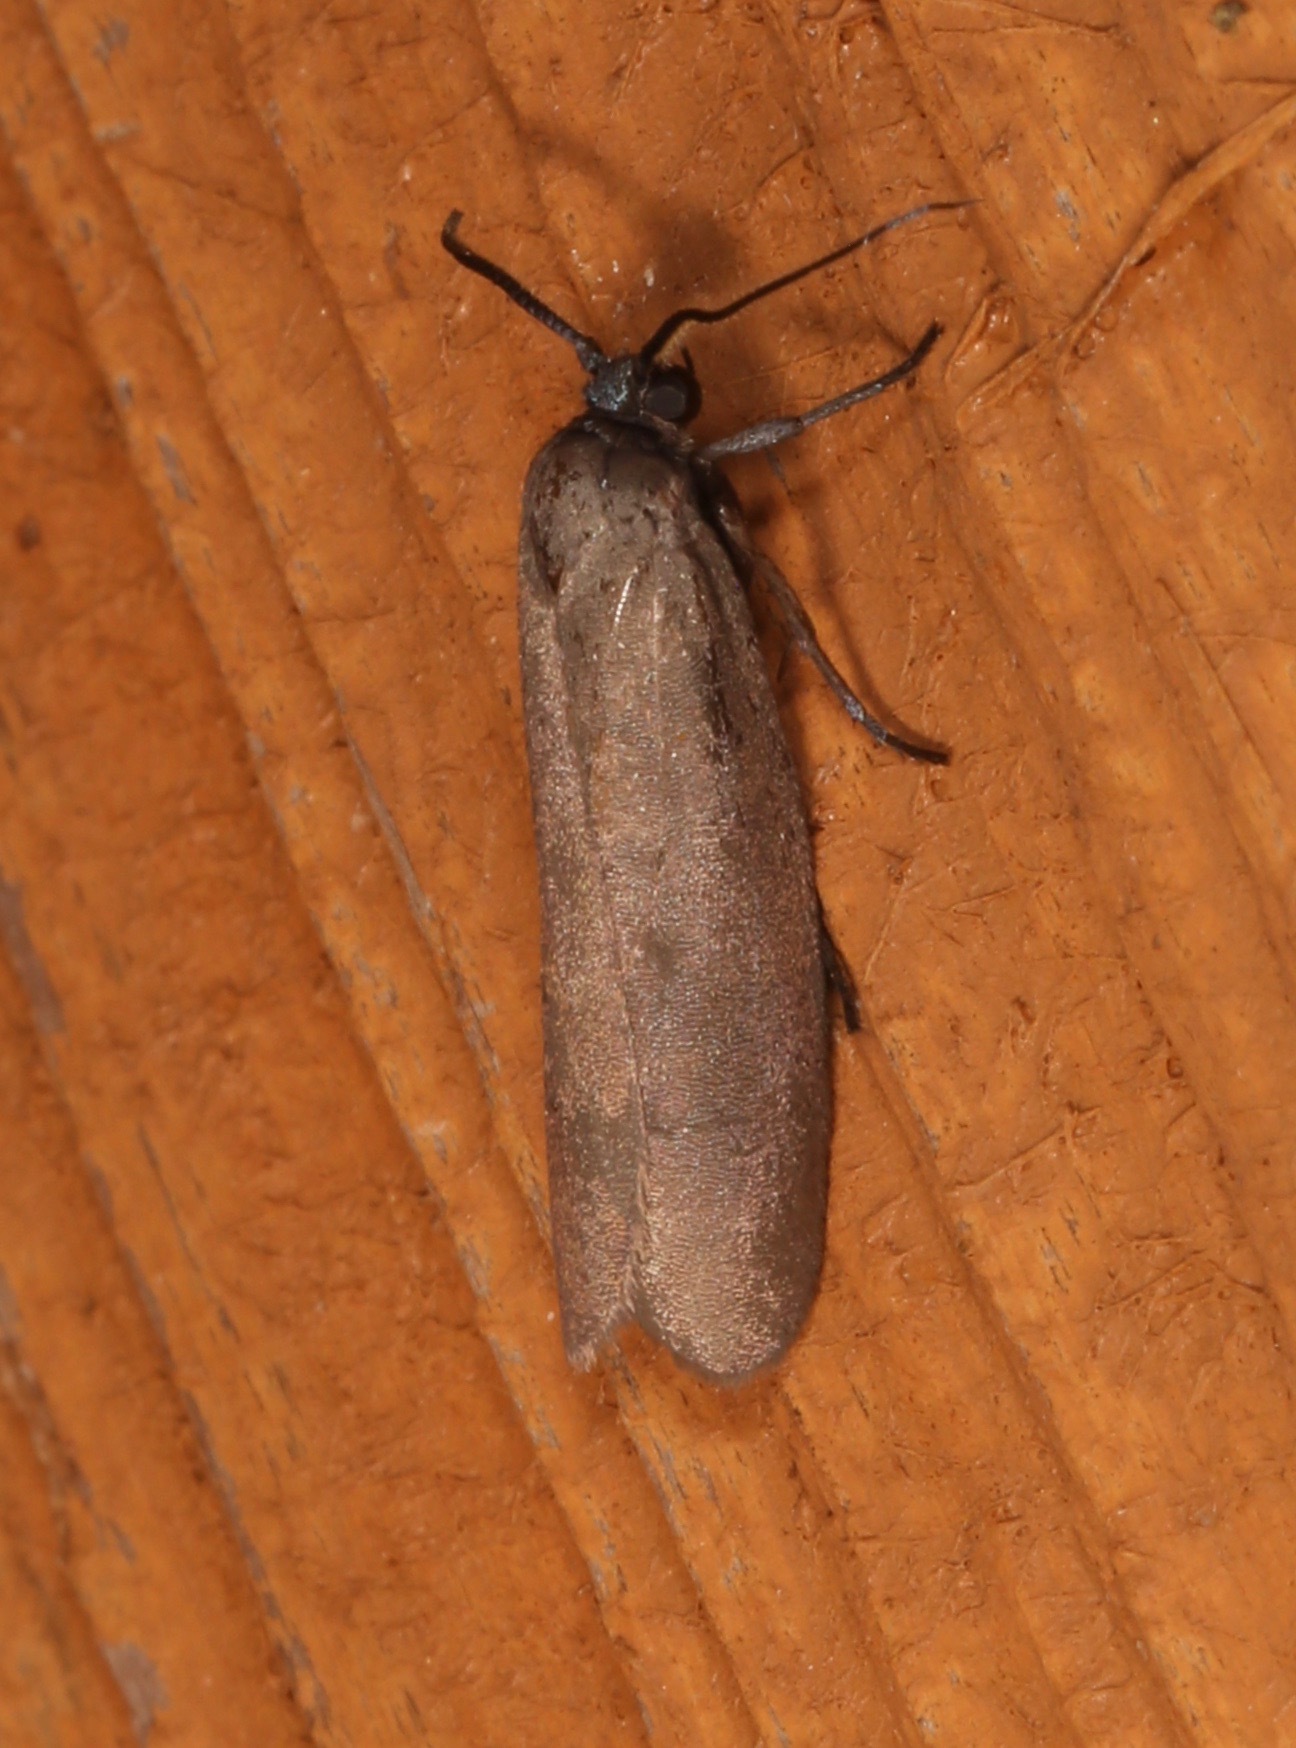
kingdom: Animalia
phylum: Arthropoda
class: Insecta
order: Lepidoptera
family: Urodidae
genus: Urodus
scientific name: Urodus parvula
